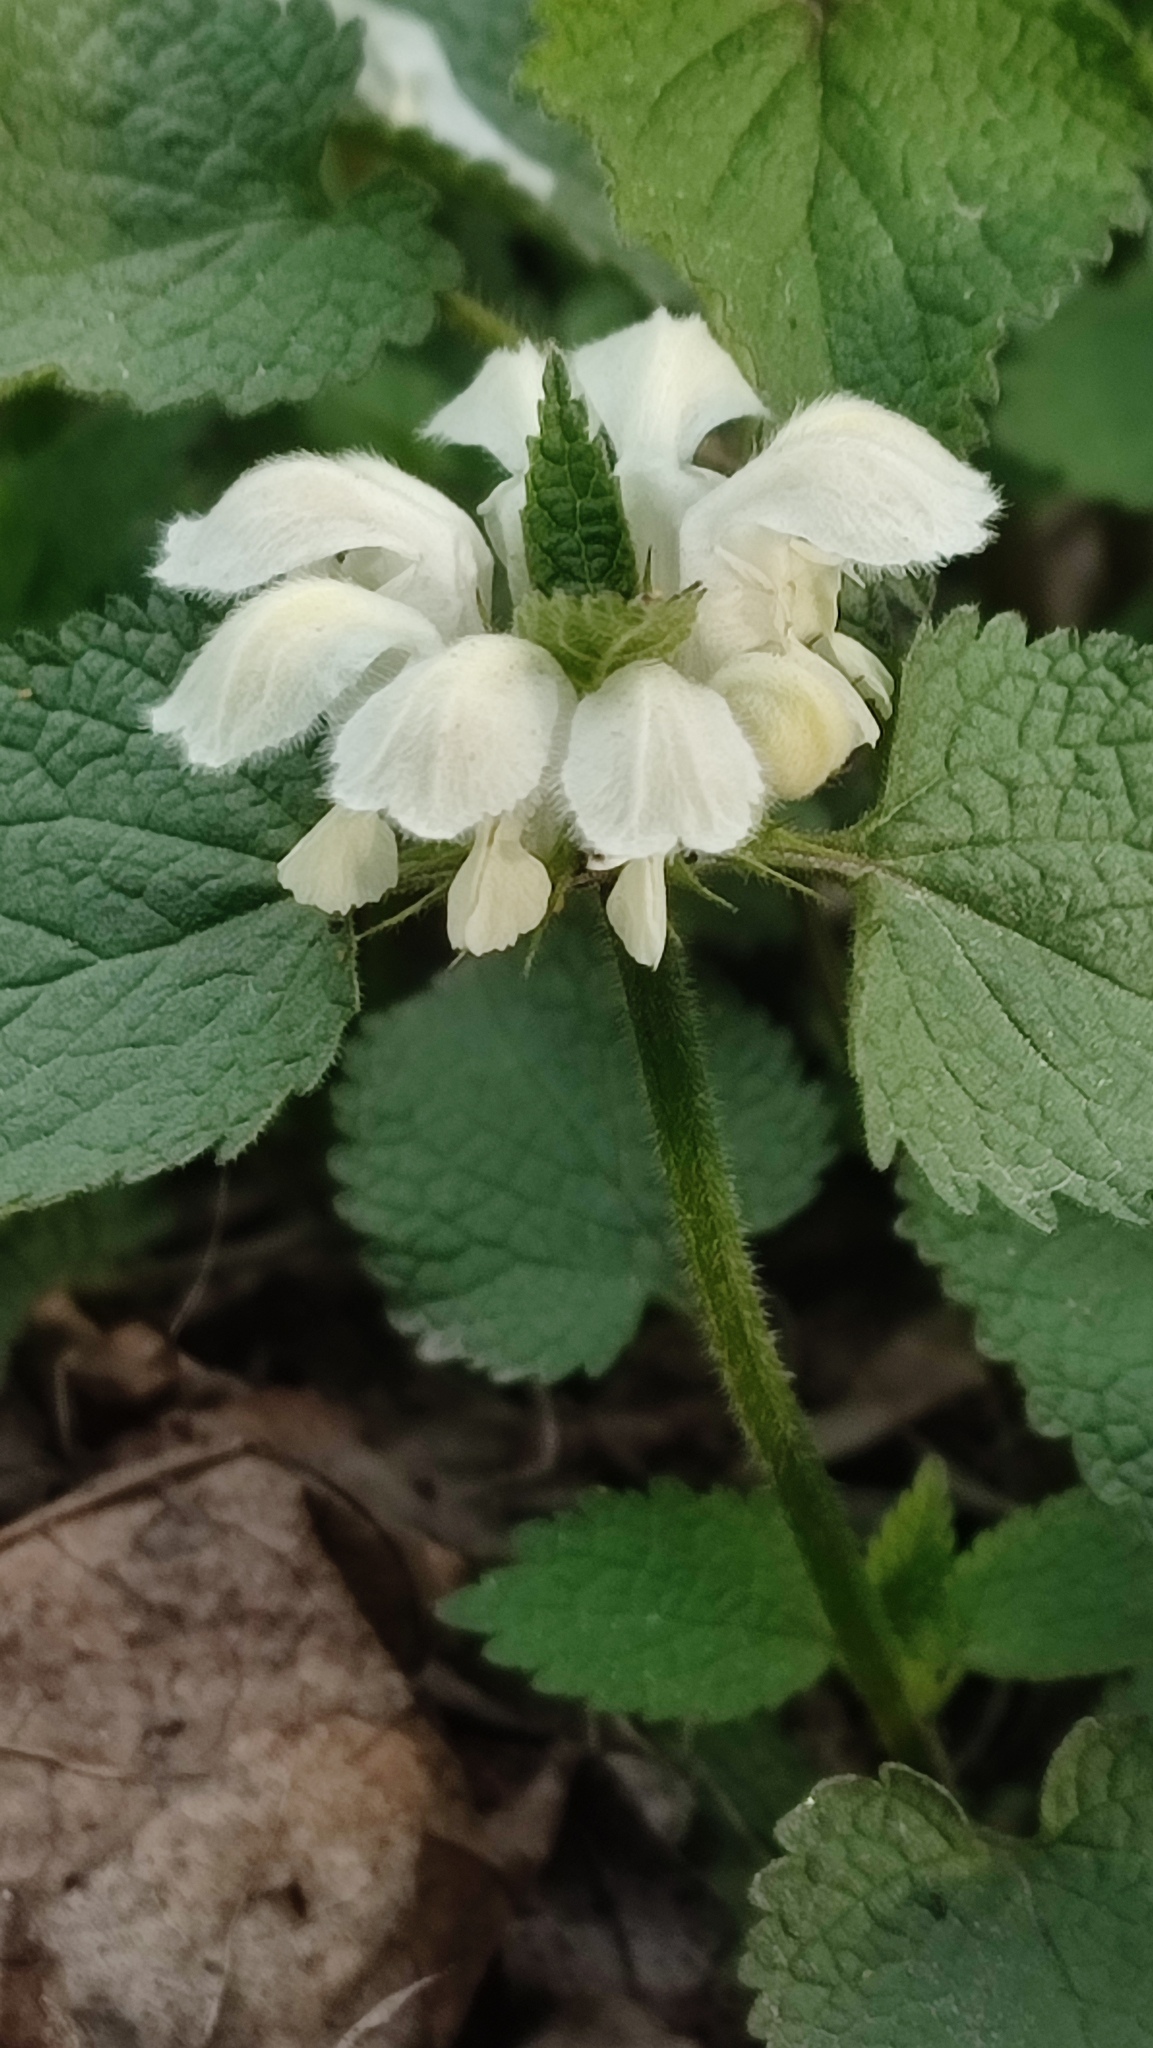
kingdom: Plantae
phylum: Tracheophyta
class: Magnoliopsida
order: Lamiales
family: Lamiaceae
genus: Lamium
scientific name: Lamium album
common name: White dead-nettle
